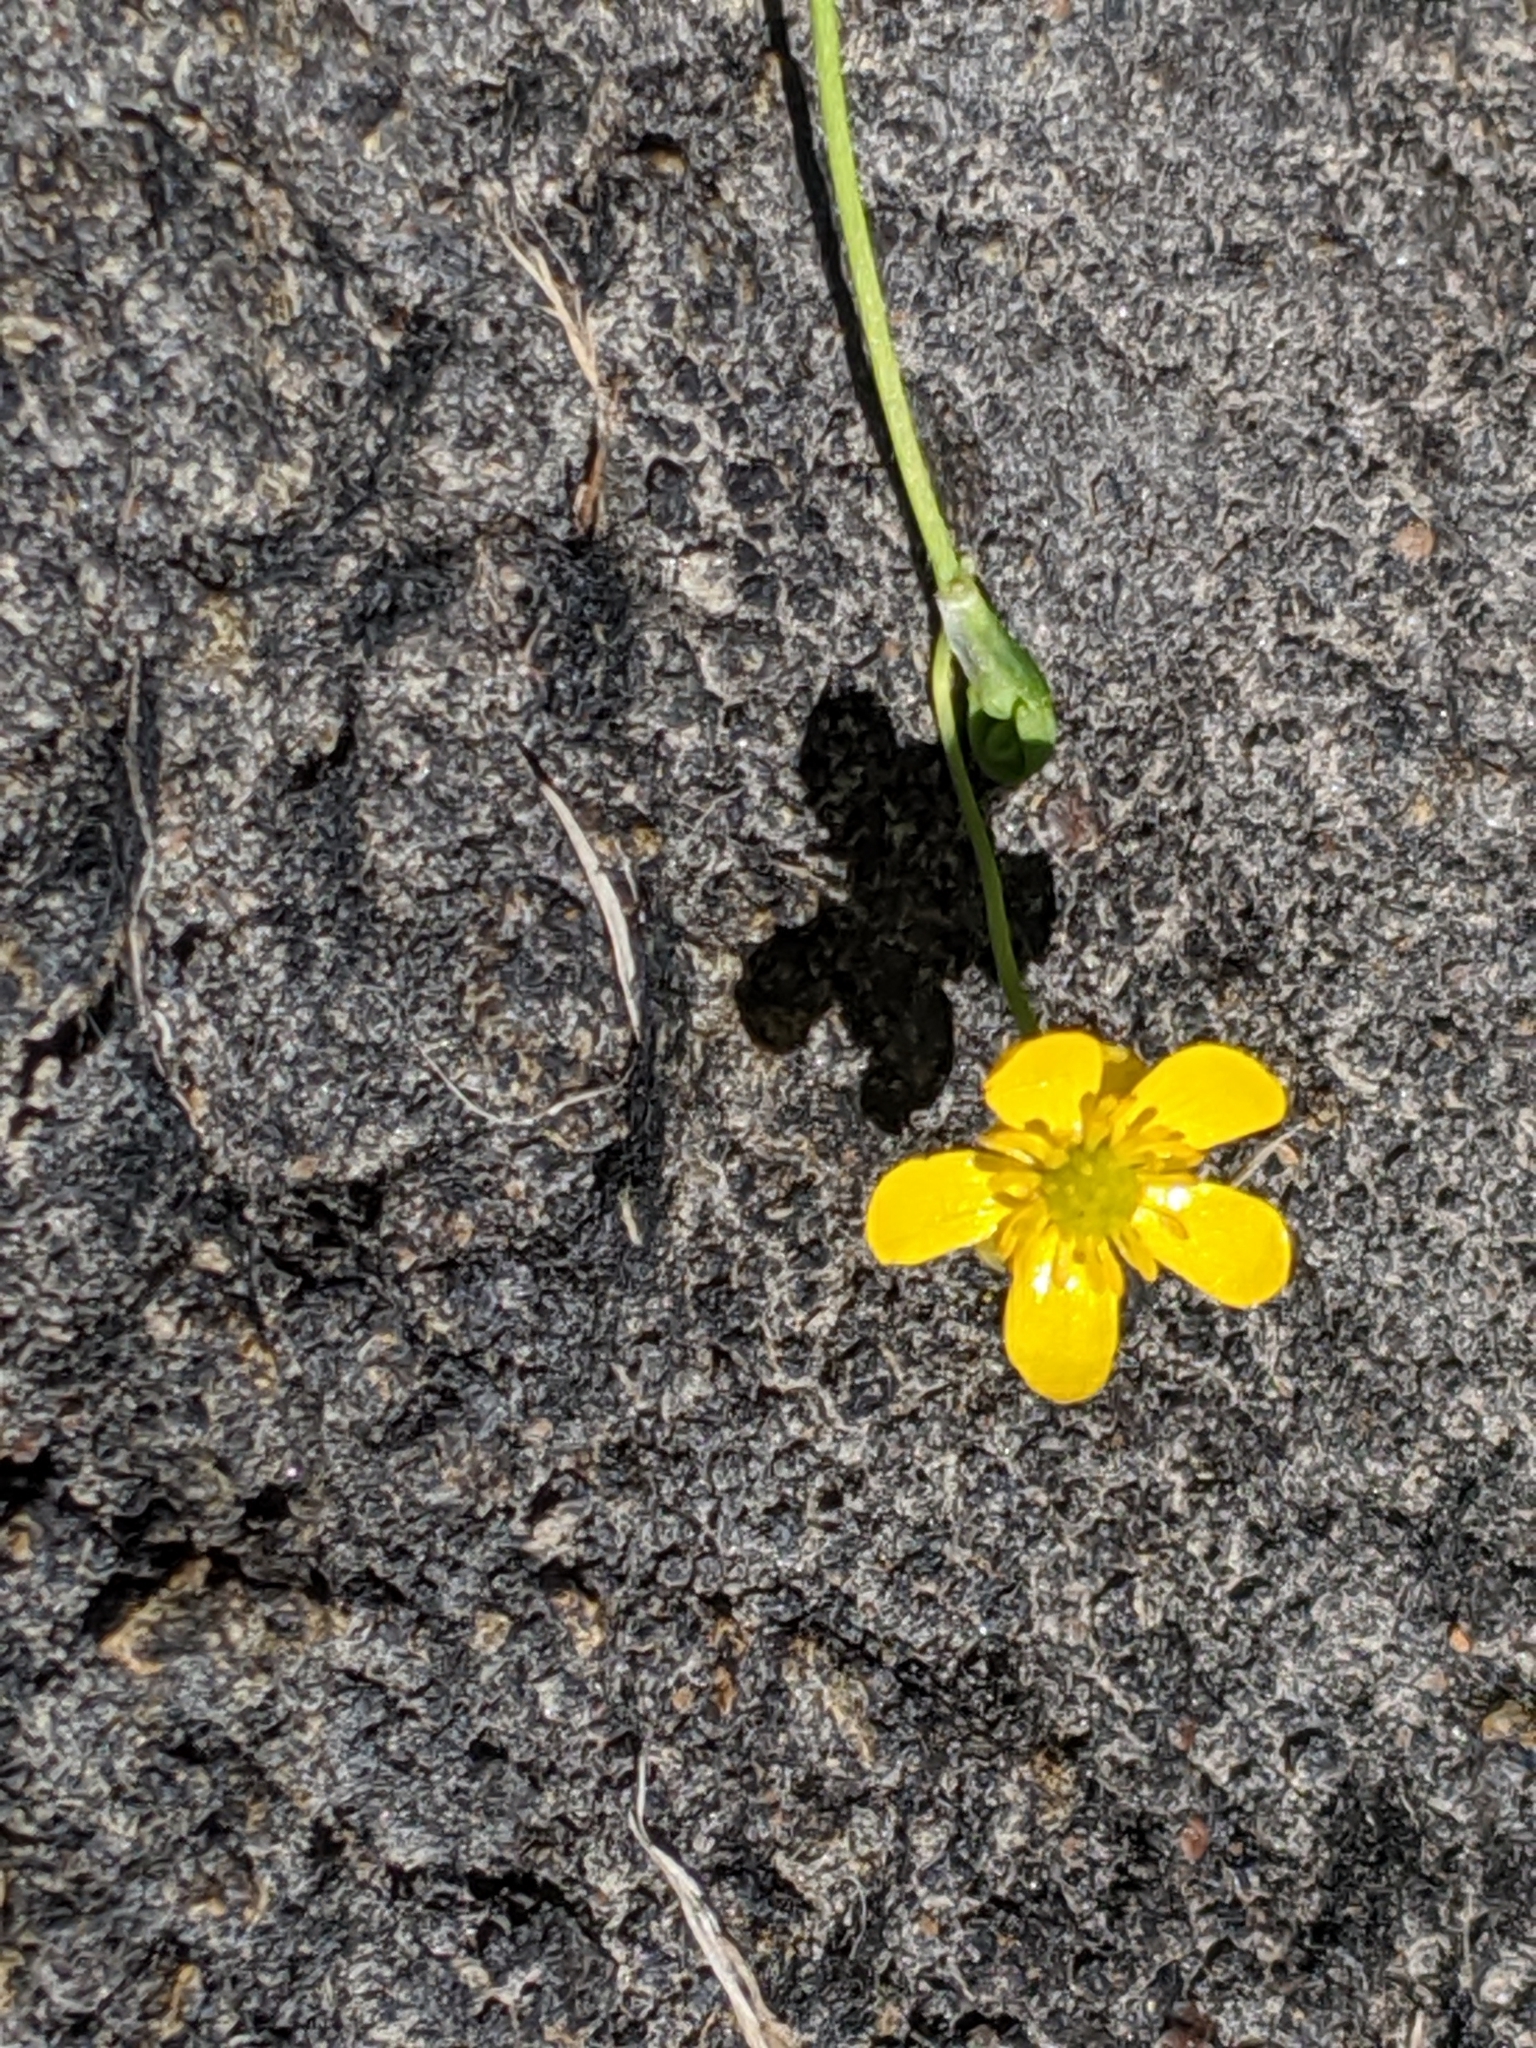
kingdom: Plantae
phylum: Tracheophyta
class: Magnoliopsida
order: Ranunculales
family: Ranunculaceae
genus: Ranunculus
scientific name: Ranunculus flammula
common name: Lesser spearwort
